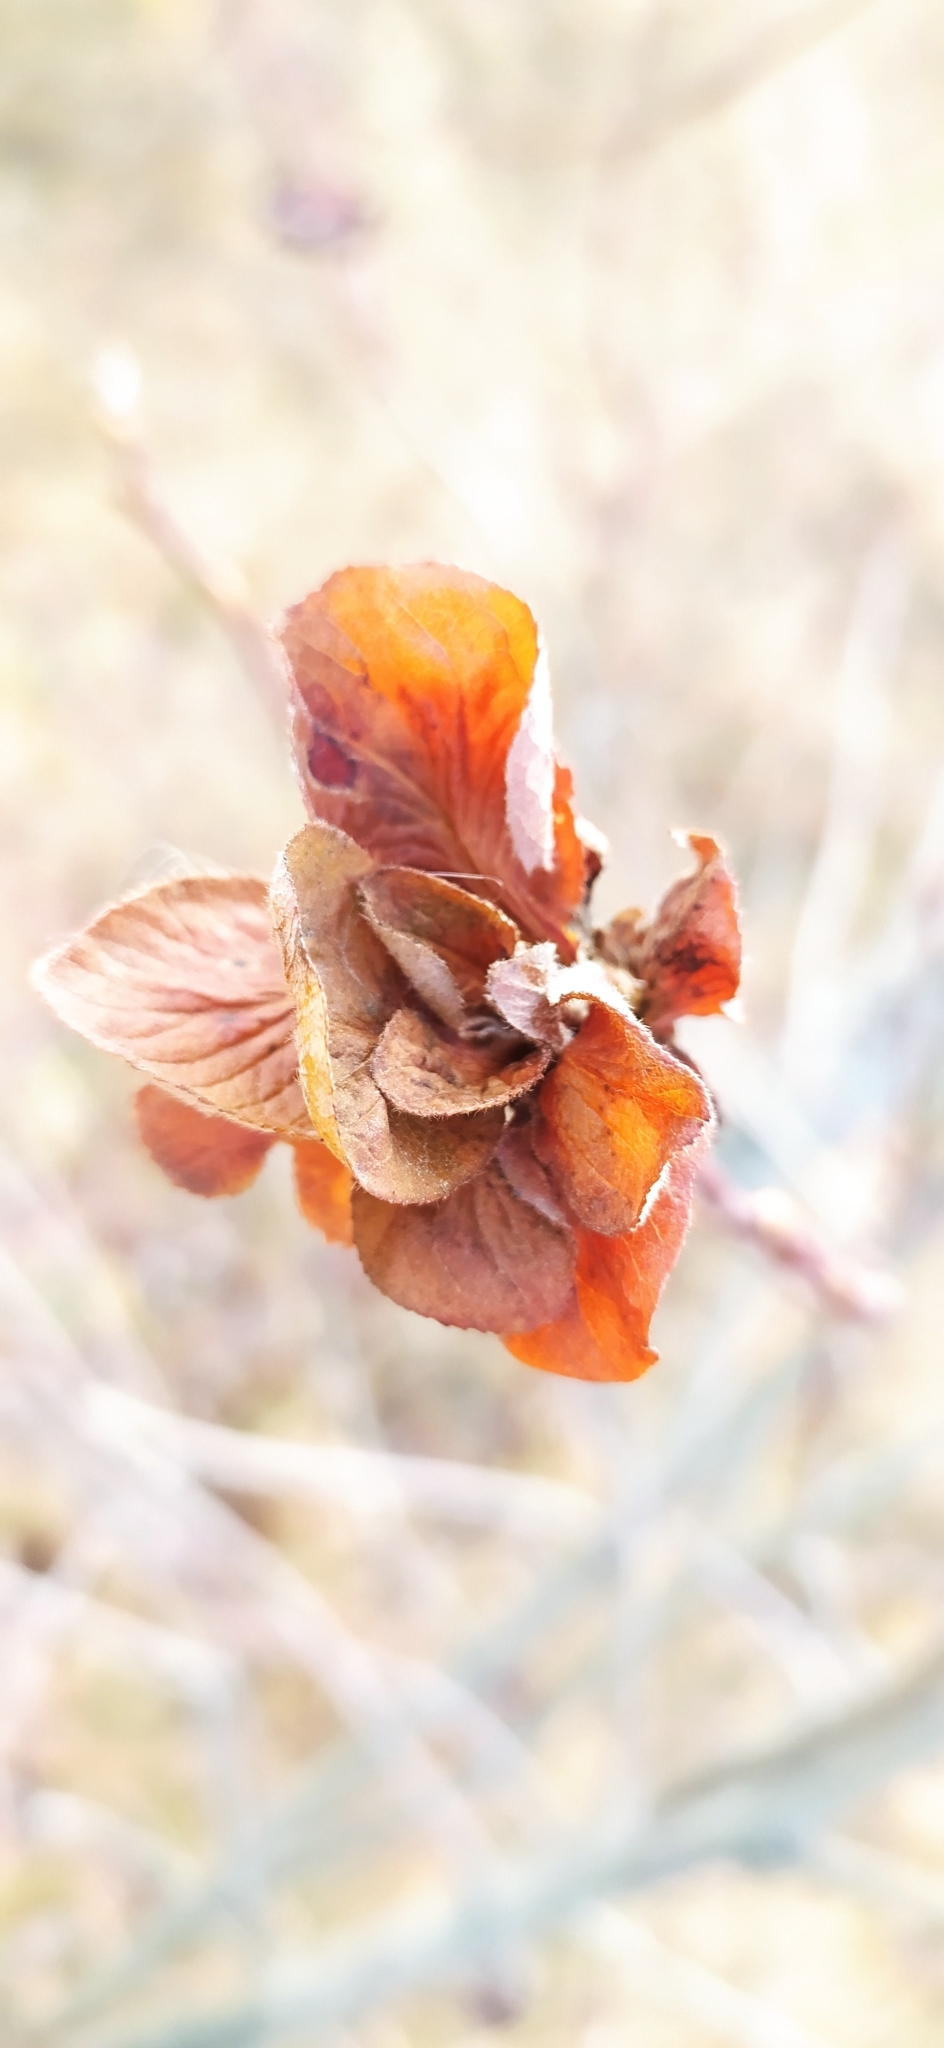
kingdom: Animalia
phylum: Arthropoda
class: Insecta
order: Diptera
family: Cecidomyiidae
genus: Rabdophaga
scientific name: Rabdophaga rosaria
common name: Willow rose gall midge
